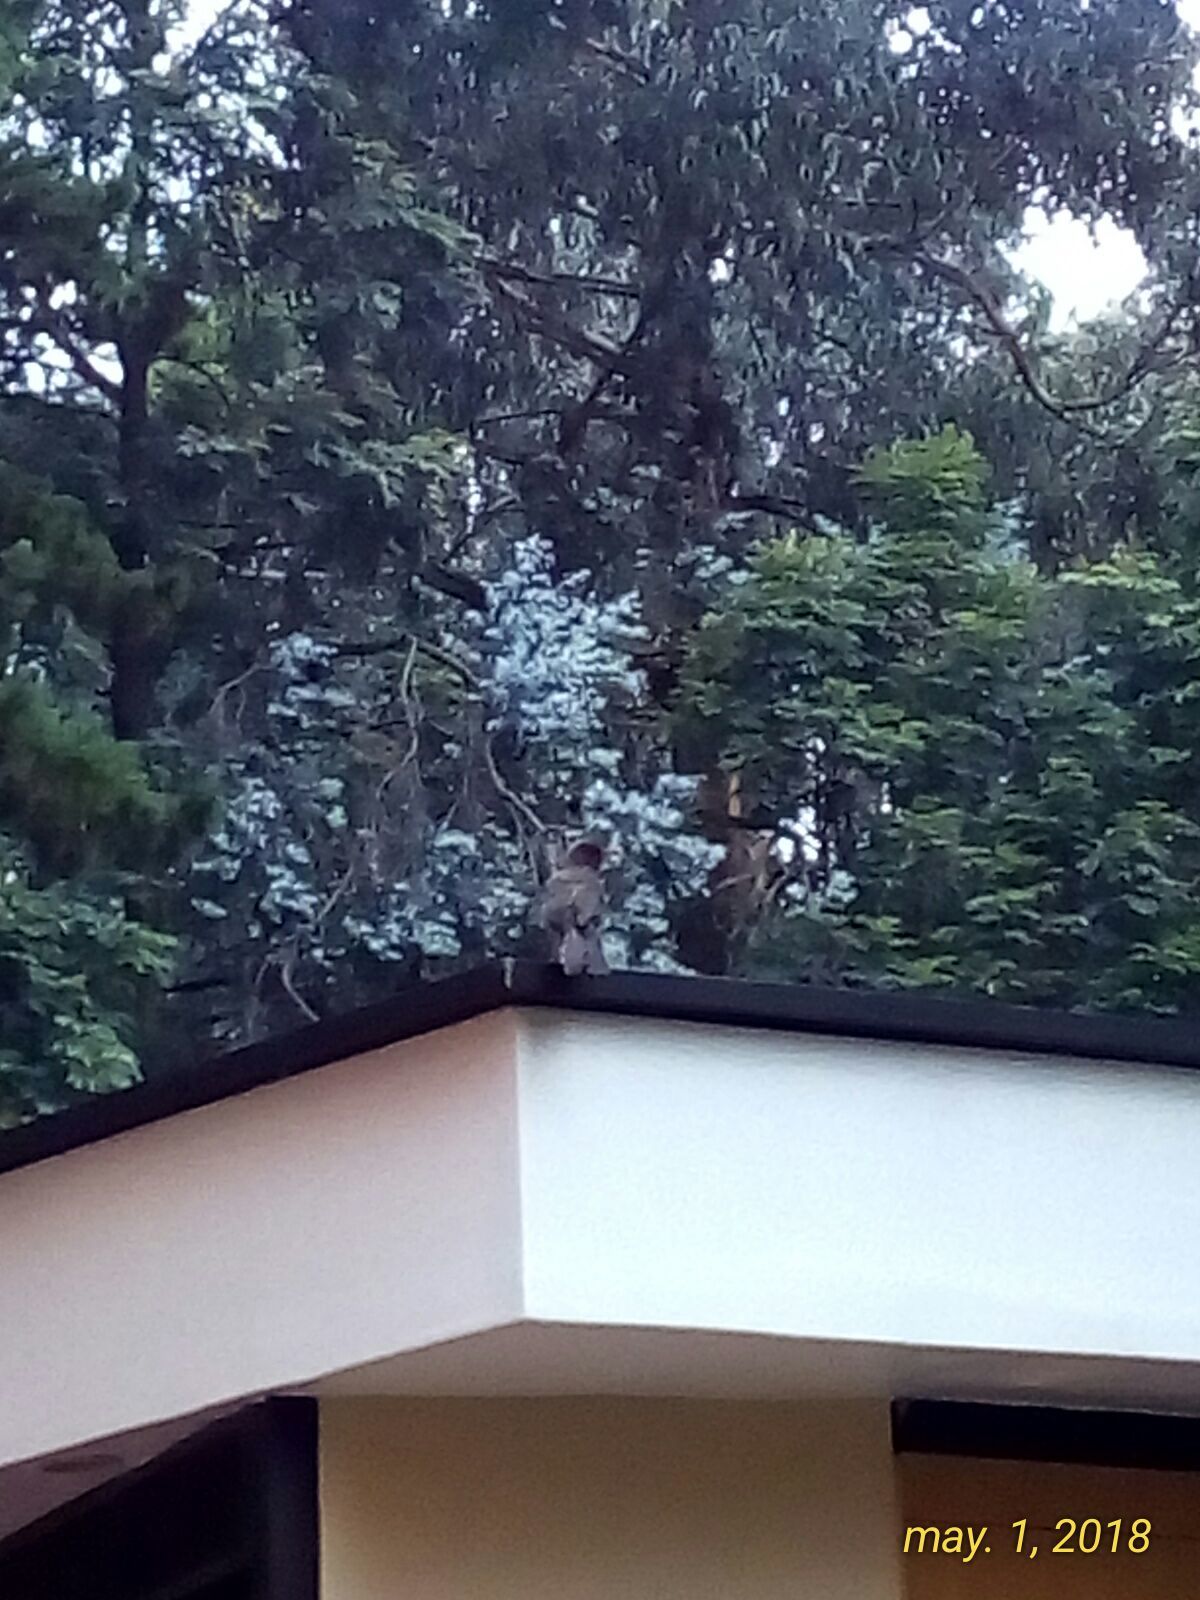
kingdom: Animalia
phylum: Chordata
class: Aves
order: Passeriformes
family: Turdidae
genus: Turdus
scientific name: Turdus fuscater
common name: Great thrush
